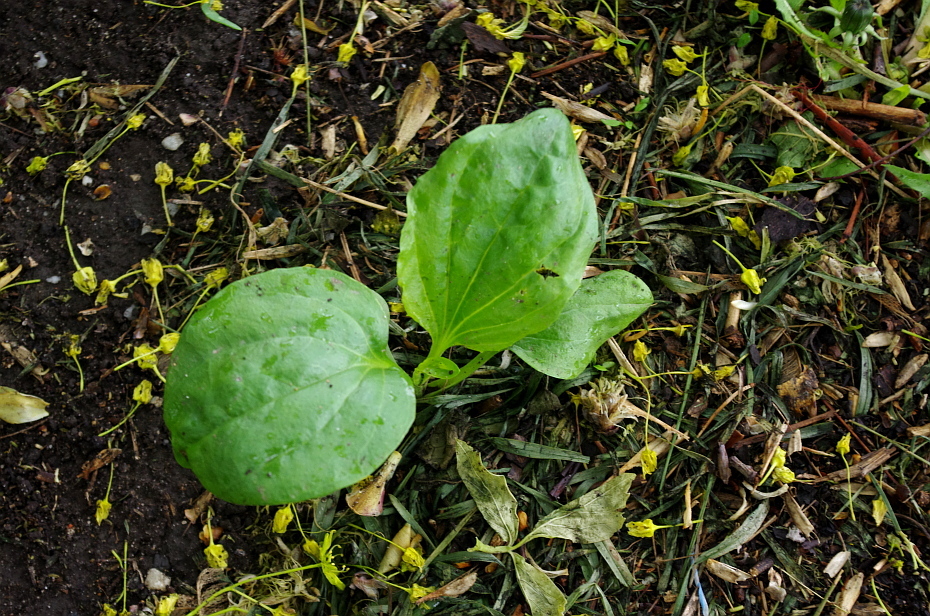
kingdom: Plantae
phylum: Tracheophyta
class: Magnoliopsida
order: Lamiales
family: Plantaginaceae
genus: Plantago
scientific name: Plantago major
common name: Common plantain
